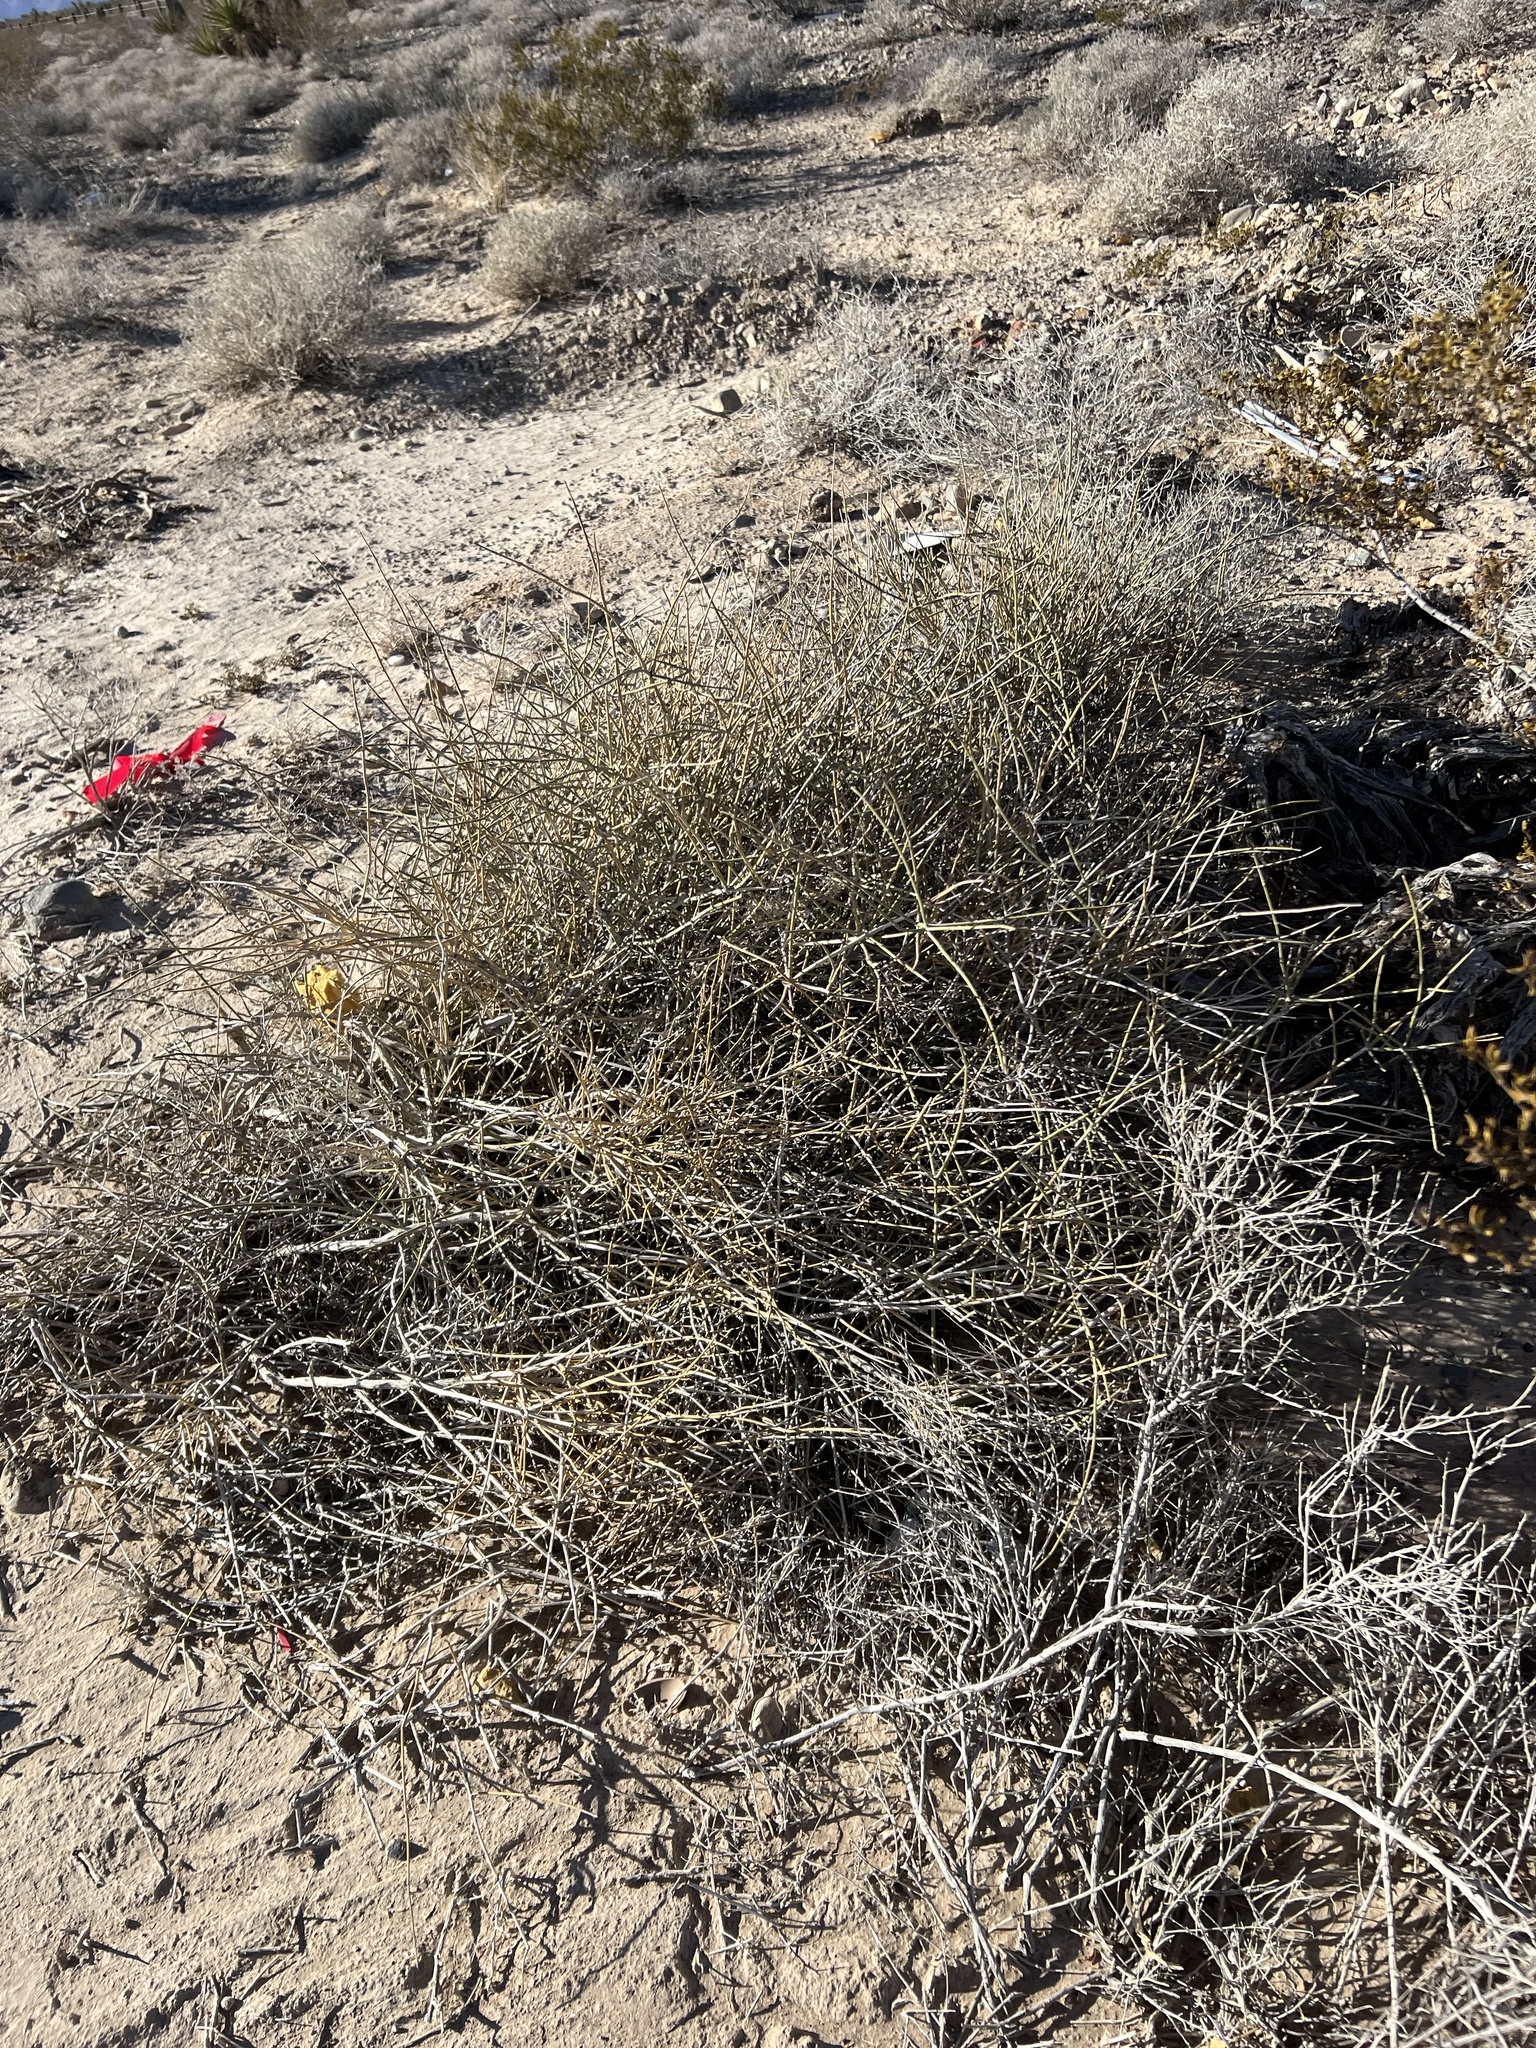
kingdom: Plantae
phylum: Tracheophyta
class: Gnetopsida
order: Ephedrales
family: Ephedraceae
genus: Ephedra
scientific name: Ephedra nevadensis
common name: Gray ephedra
